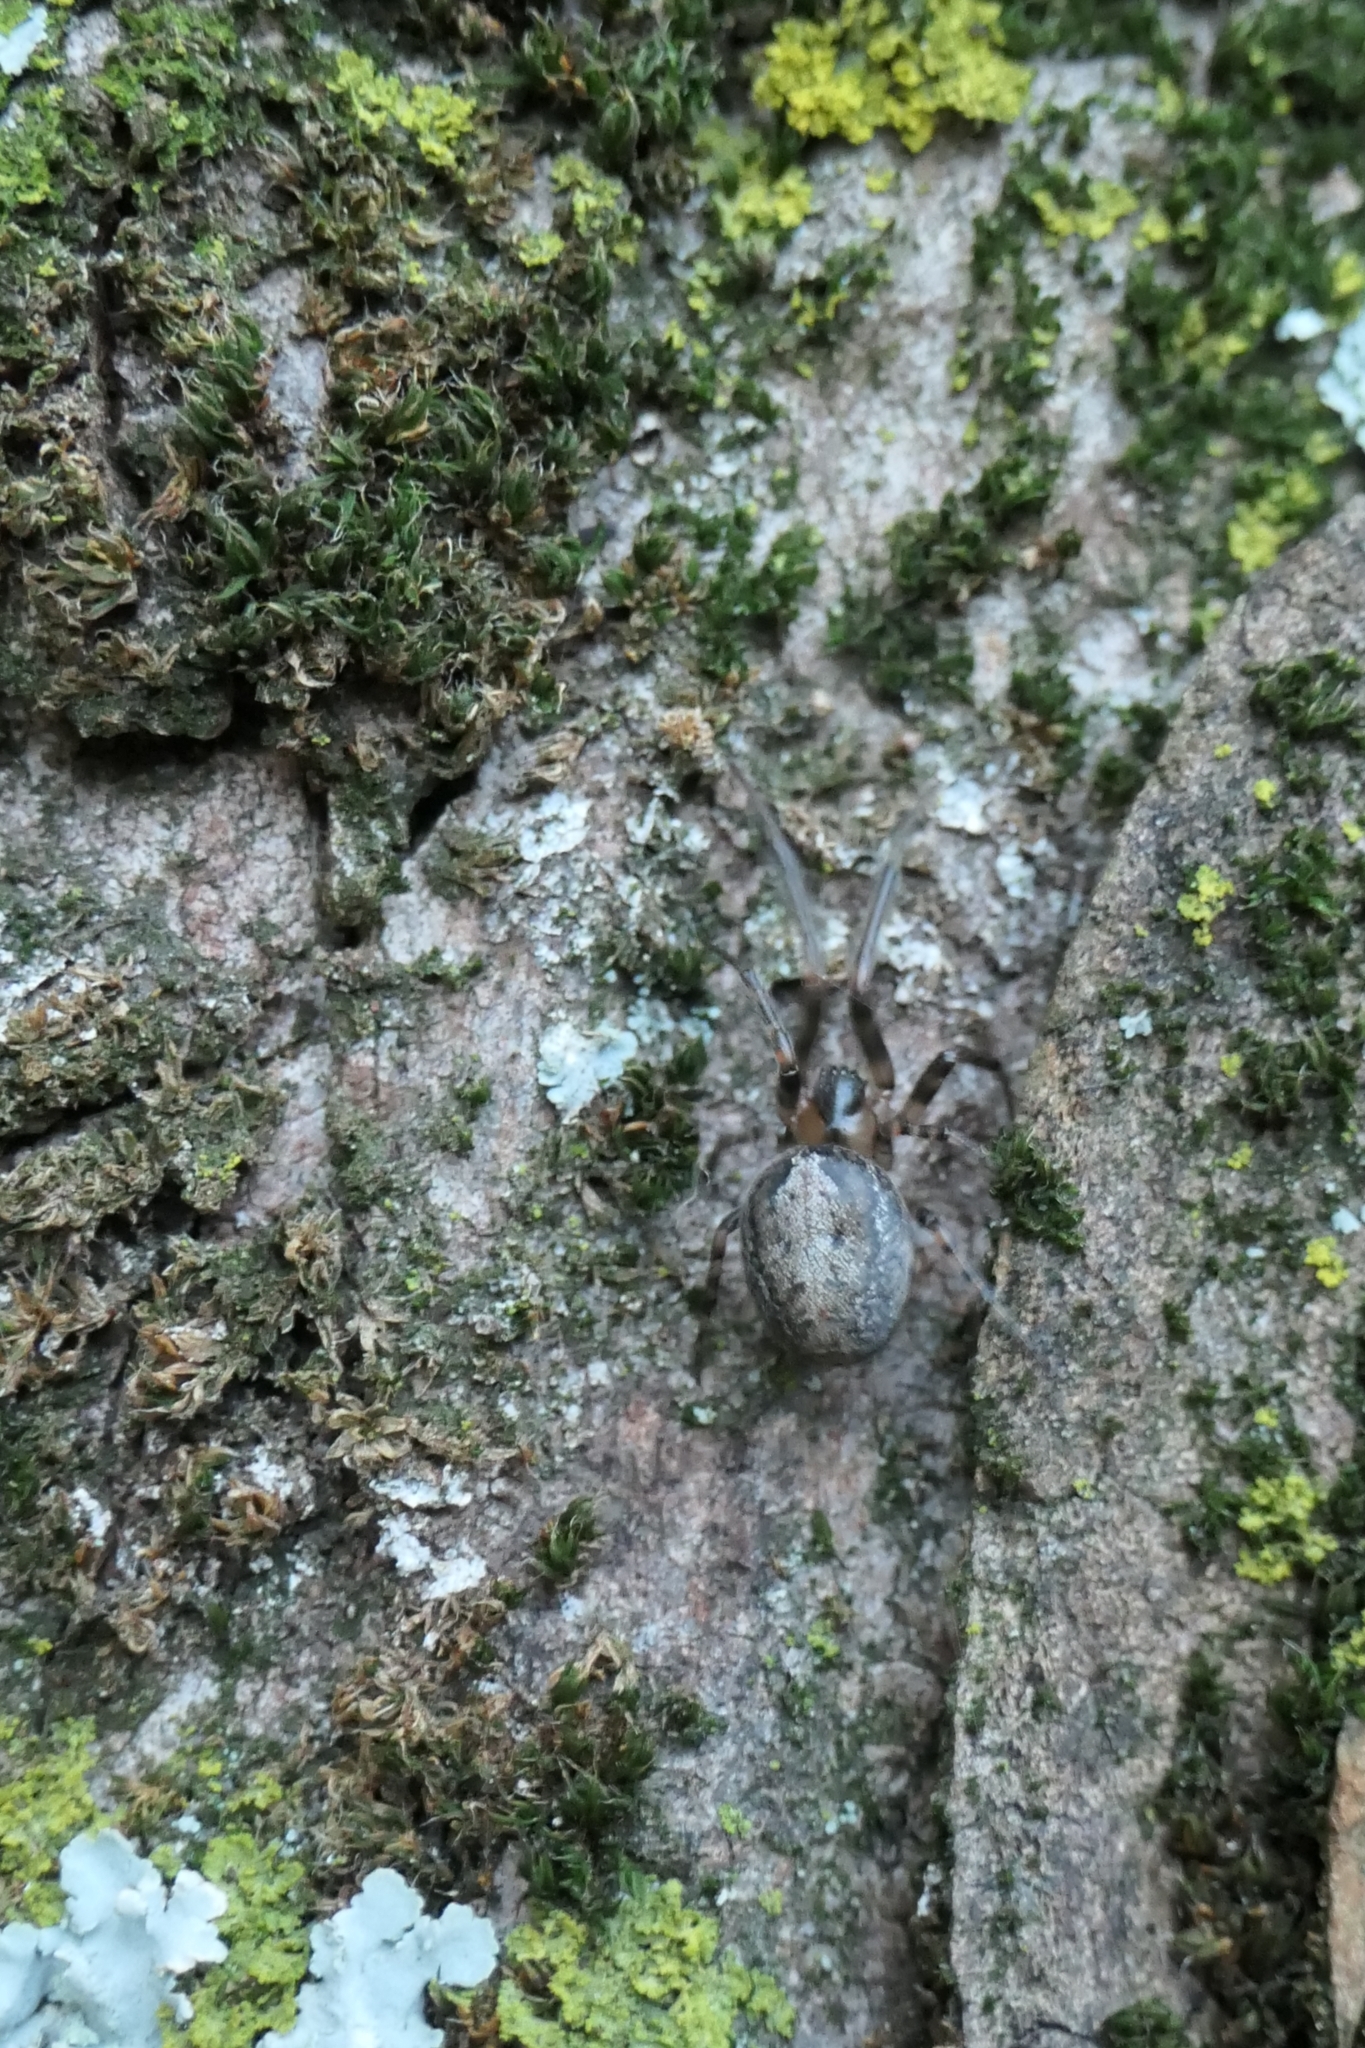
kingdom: Animalia
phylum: Arthropoda
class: Arachnida
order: Araneae
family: Araneidae
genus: Zygiella
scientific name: Zygiella x-notata
